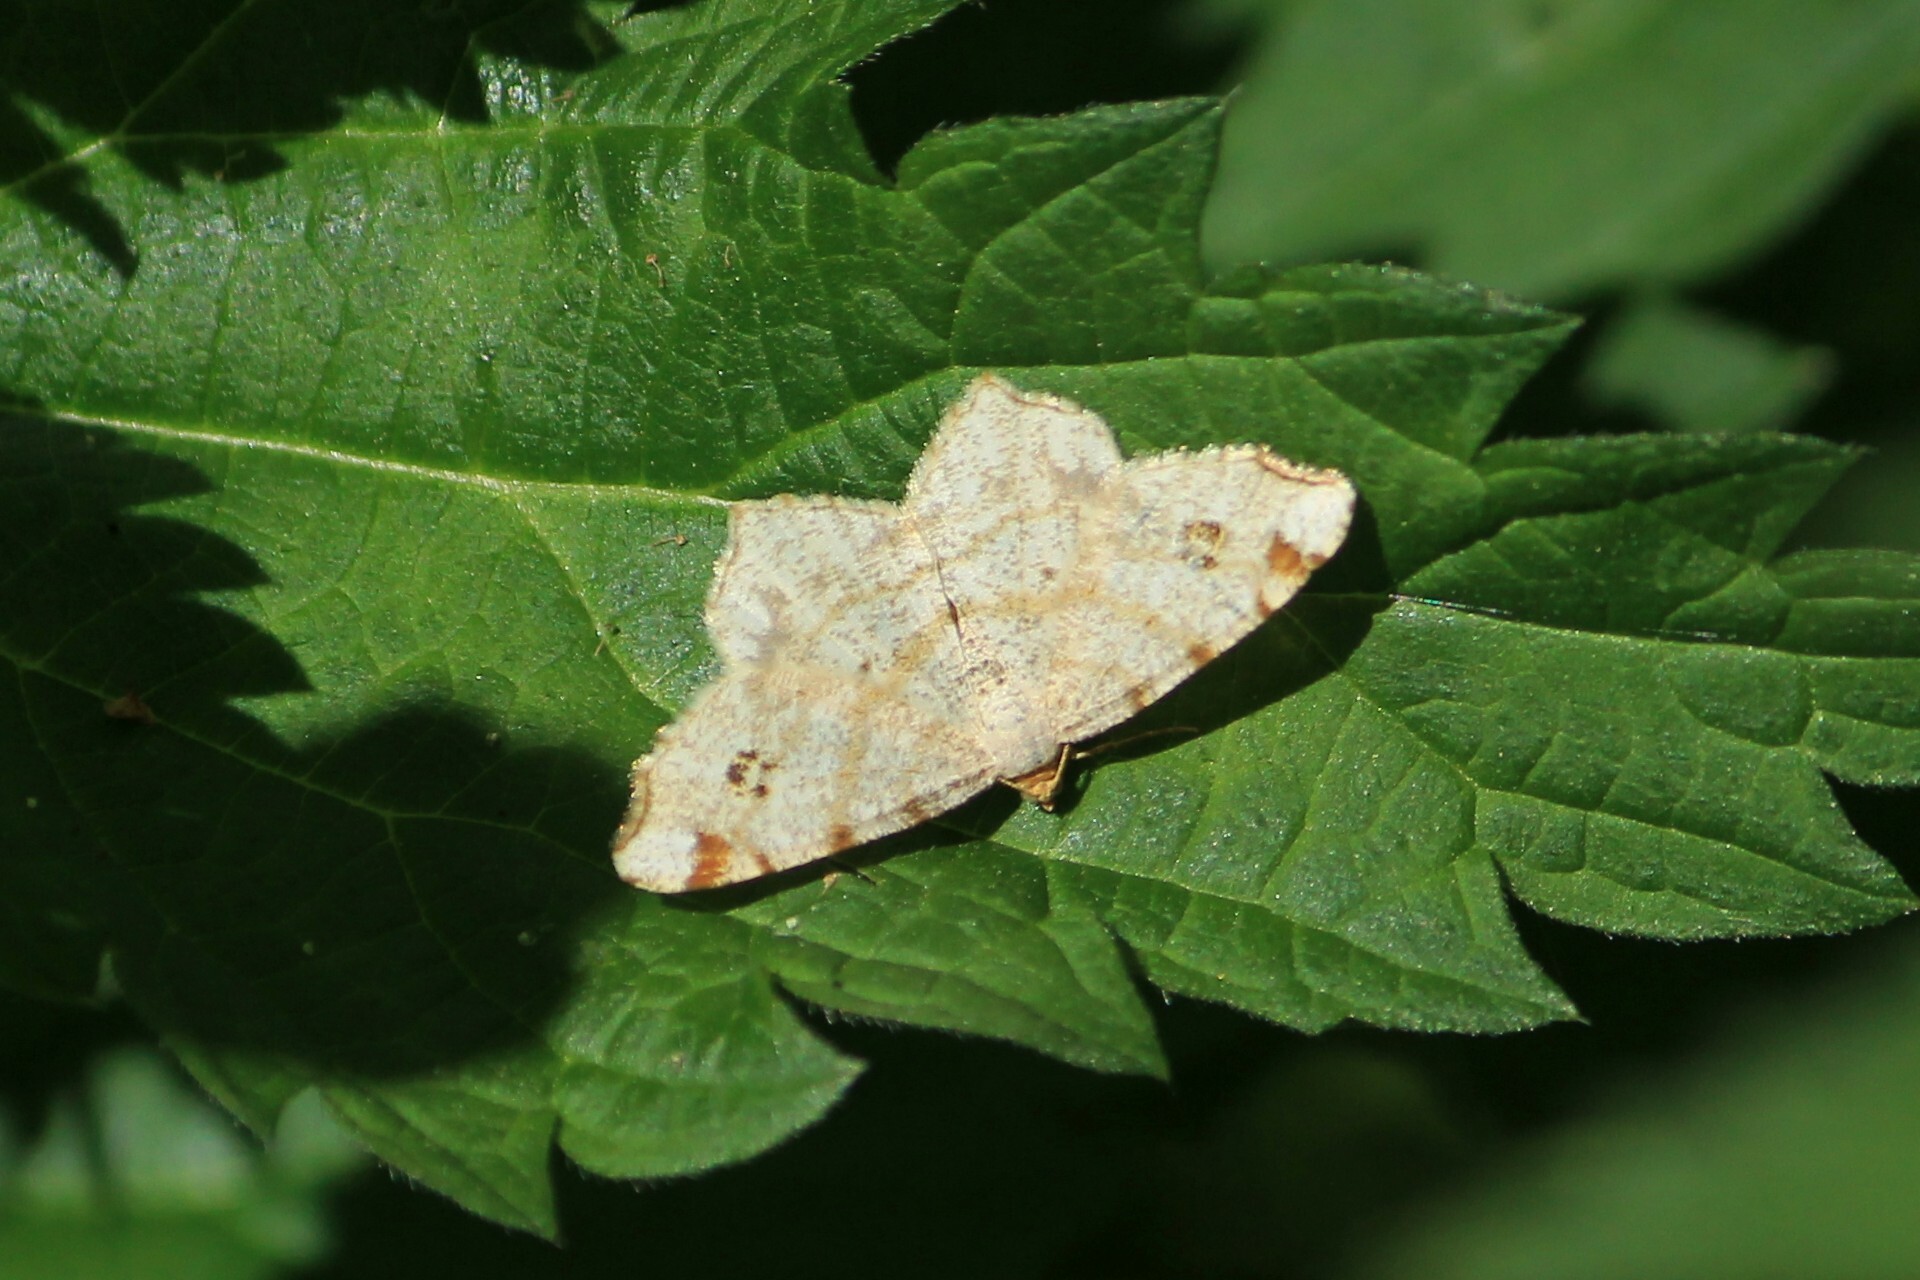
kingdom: Animalia
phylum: Arthropoda
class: Insecta
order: Lepidoptera
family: Geometridae
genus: Macaria
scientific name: Macaria notata
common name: Peacock moth
